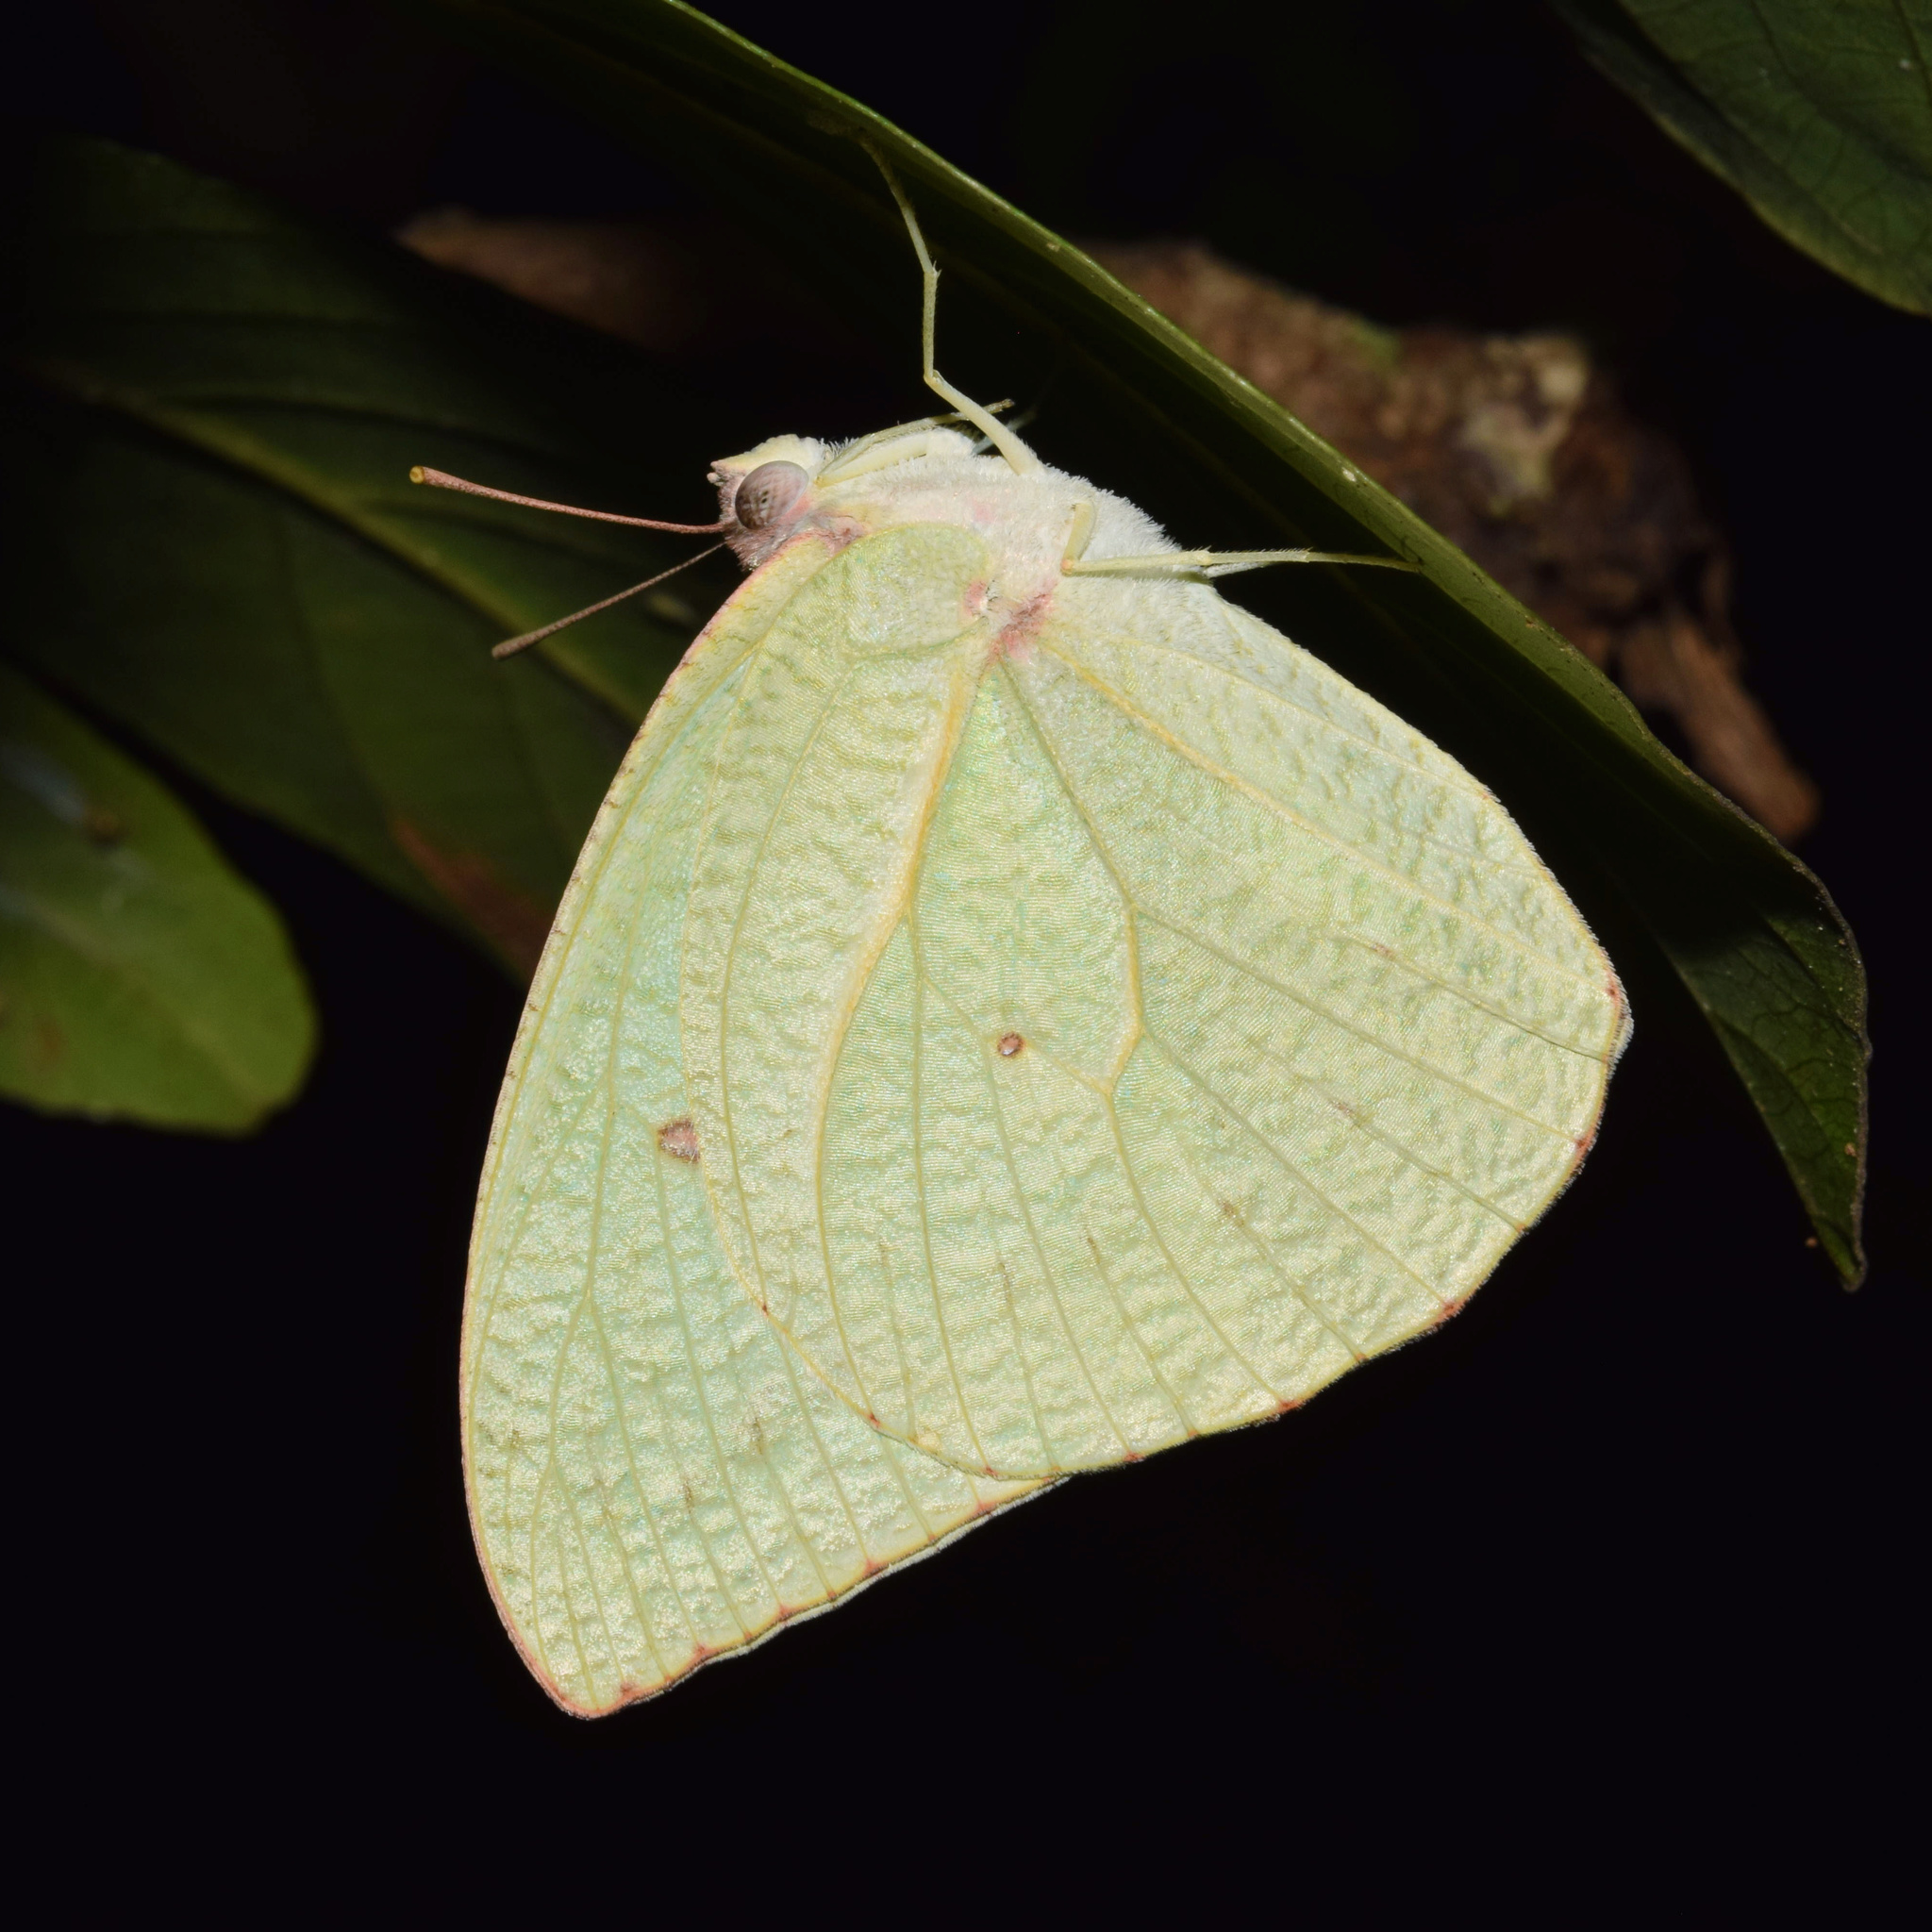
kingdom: Animalia
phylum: Arthropoda
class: Insecta
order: Lepidoptera
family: Pieridae
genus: Catopsilia
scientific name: Catopsilia florella
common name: African migrant
